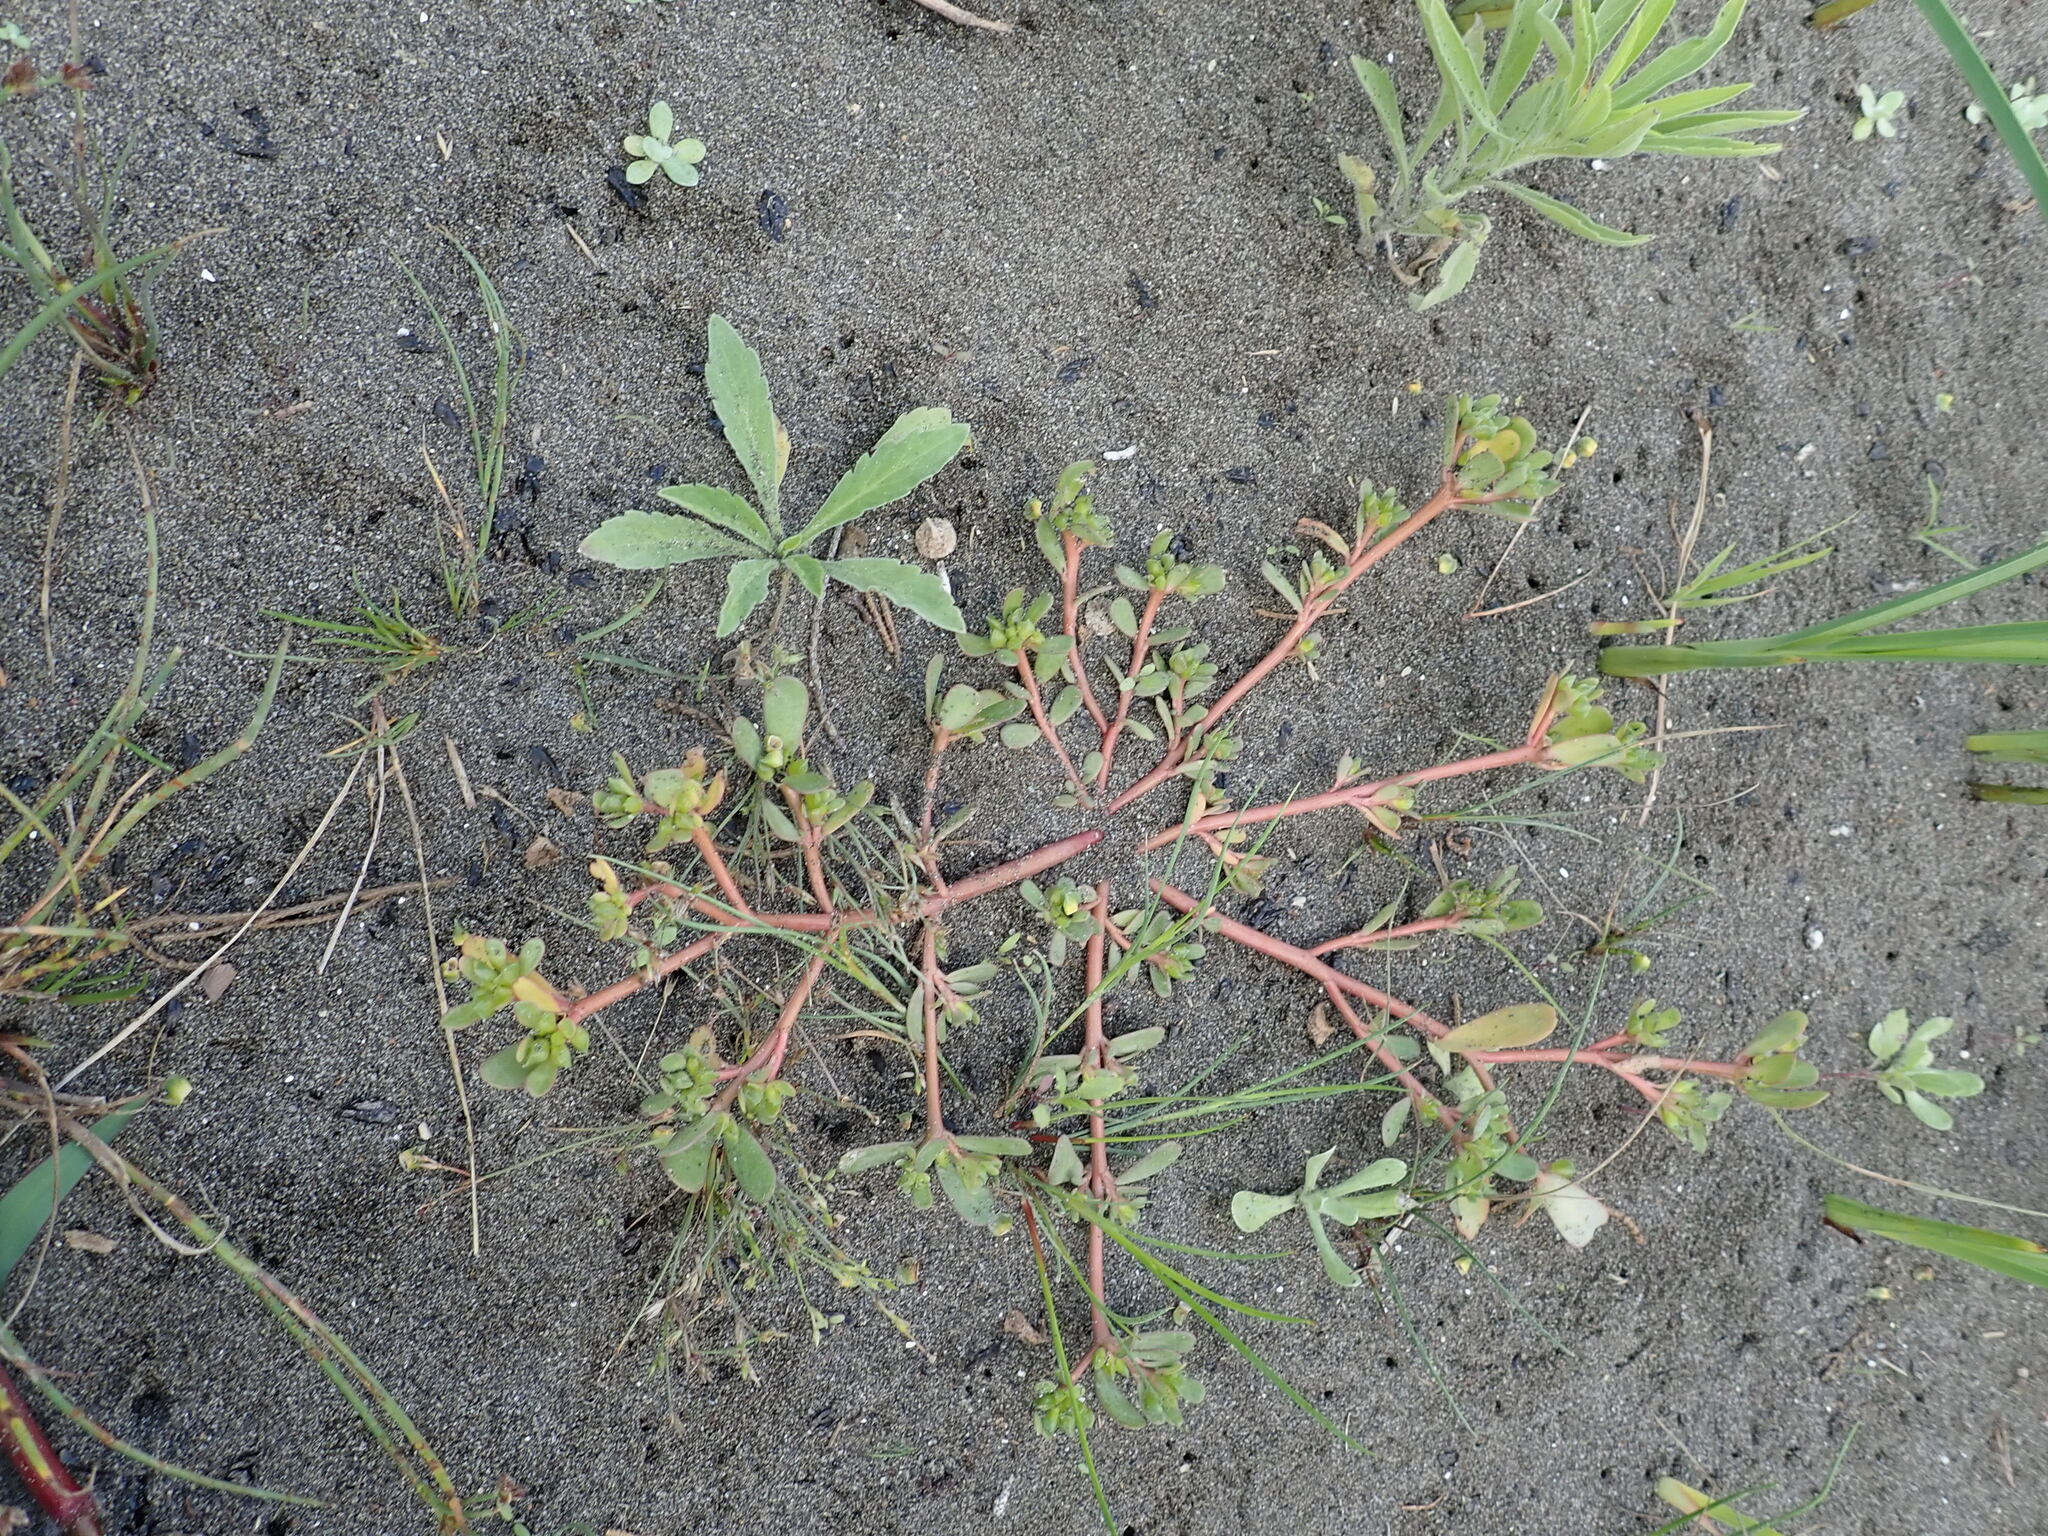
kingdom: Plantae
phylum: Tracheophyta
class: Magnoliopsida
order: Caryophyllales
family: Portulacaceae
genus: Portulaca
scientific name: Portulaca oleracea
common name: Common purslane
